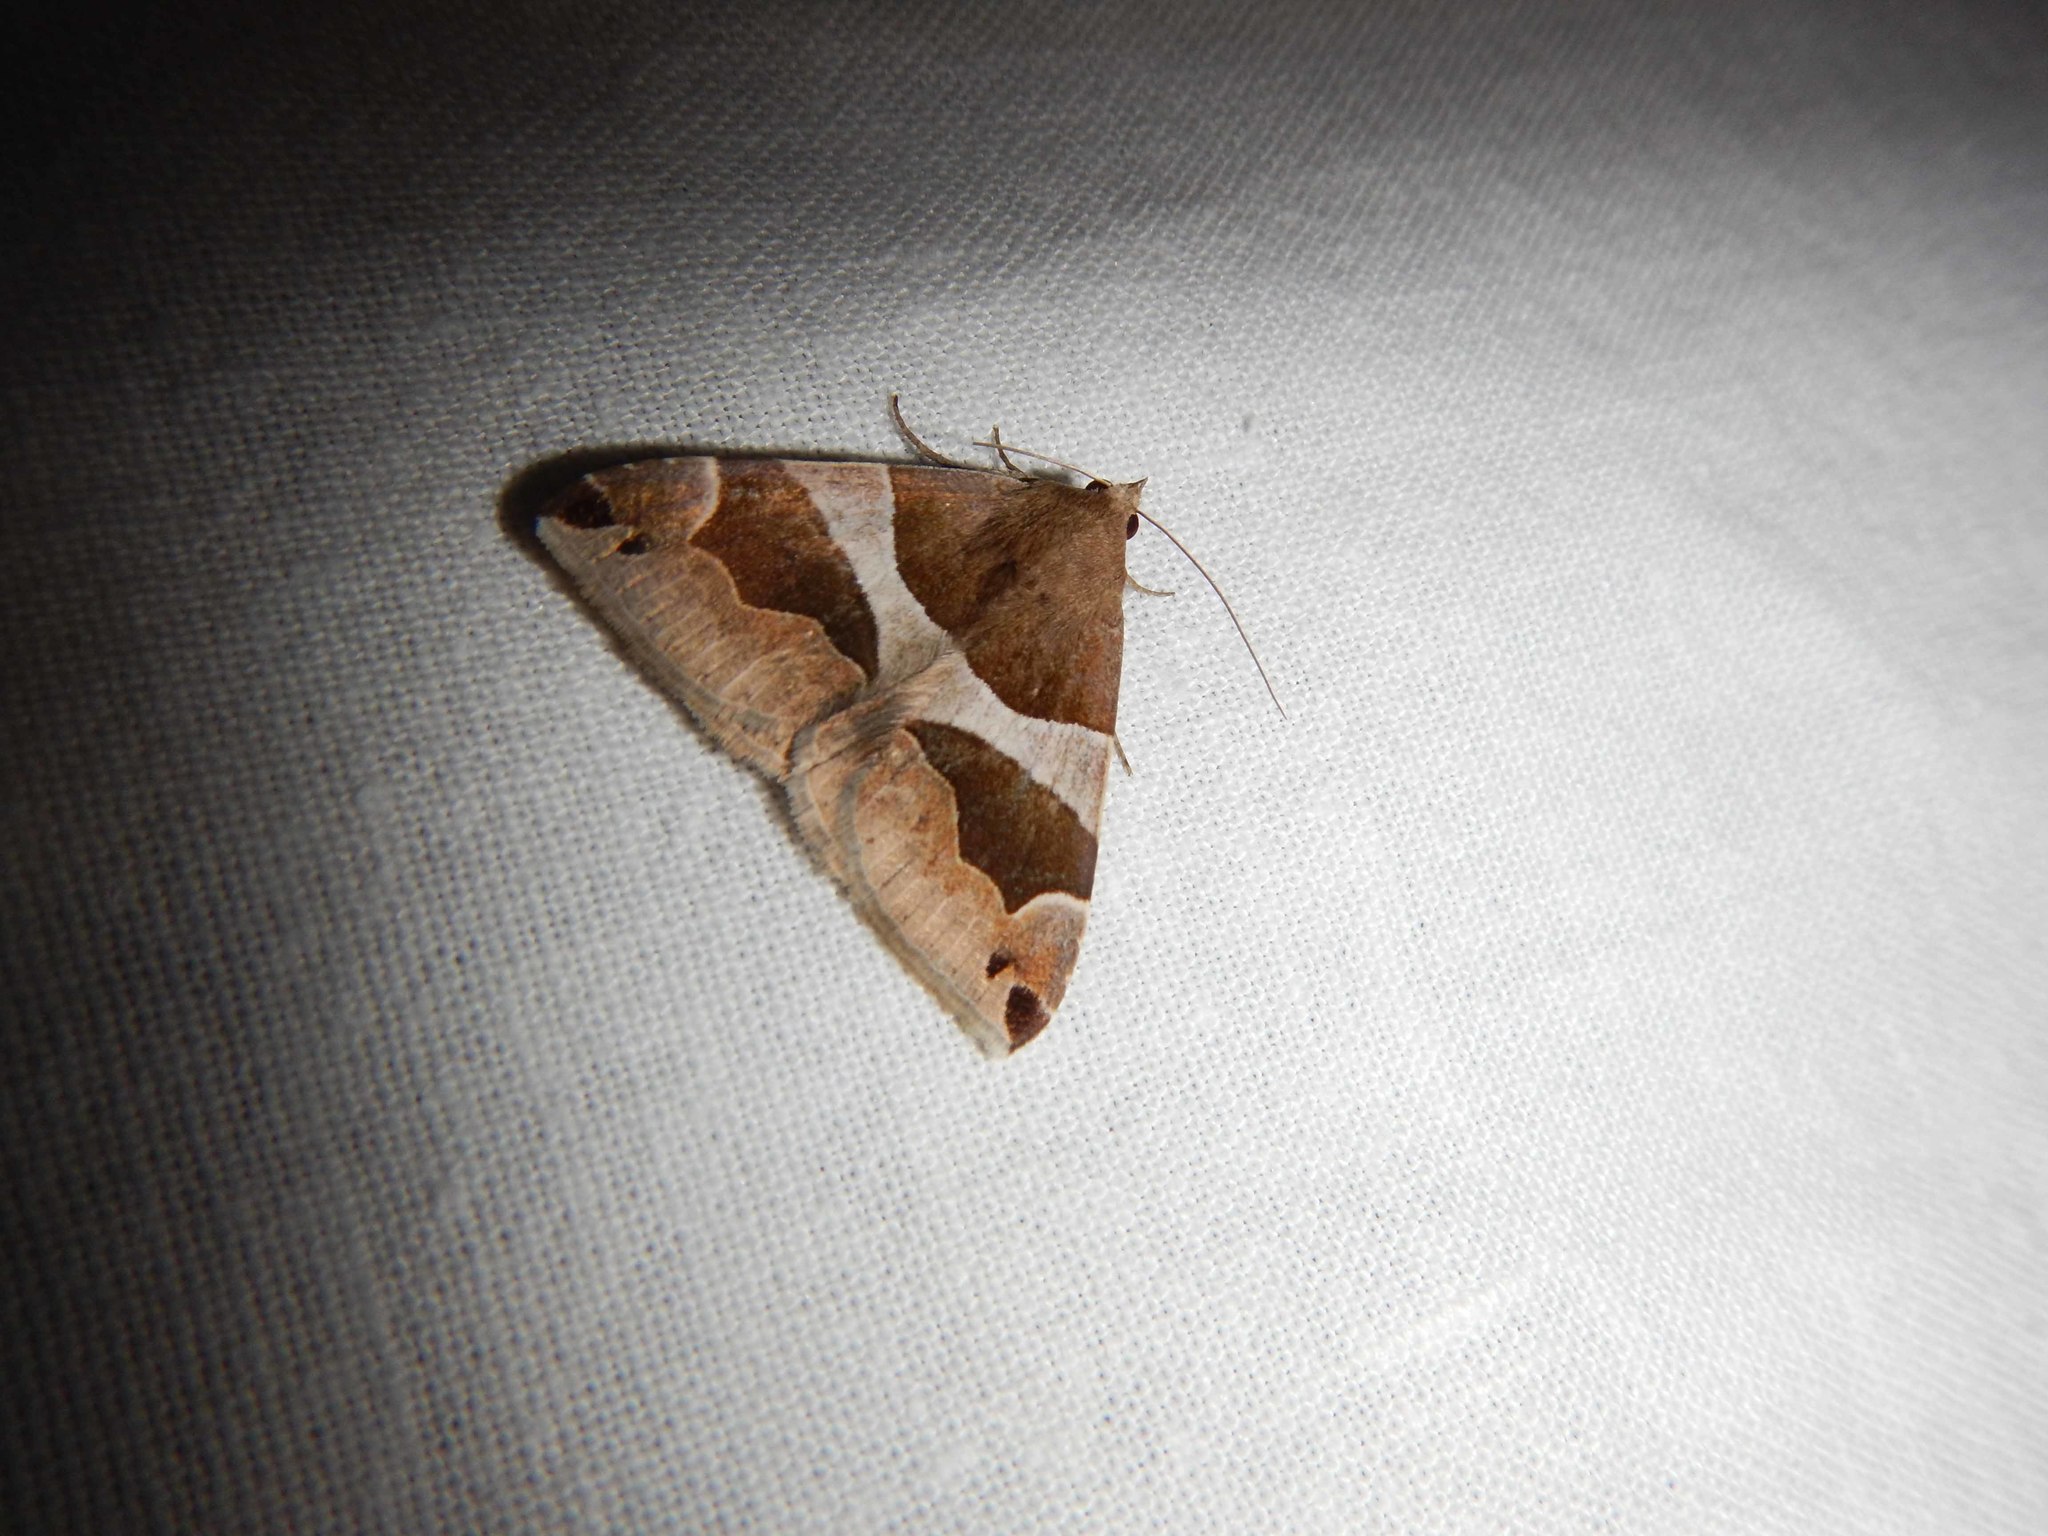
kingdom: Animalia
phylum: Arthropoda
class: Insecta
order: Lepidoptera
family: Erebidae
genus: Dysgonia
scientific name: Dysgonia algira
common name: Passenger
